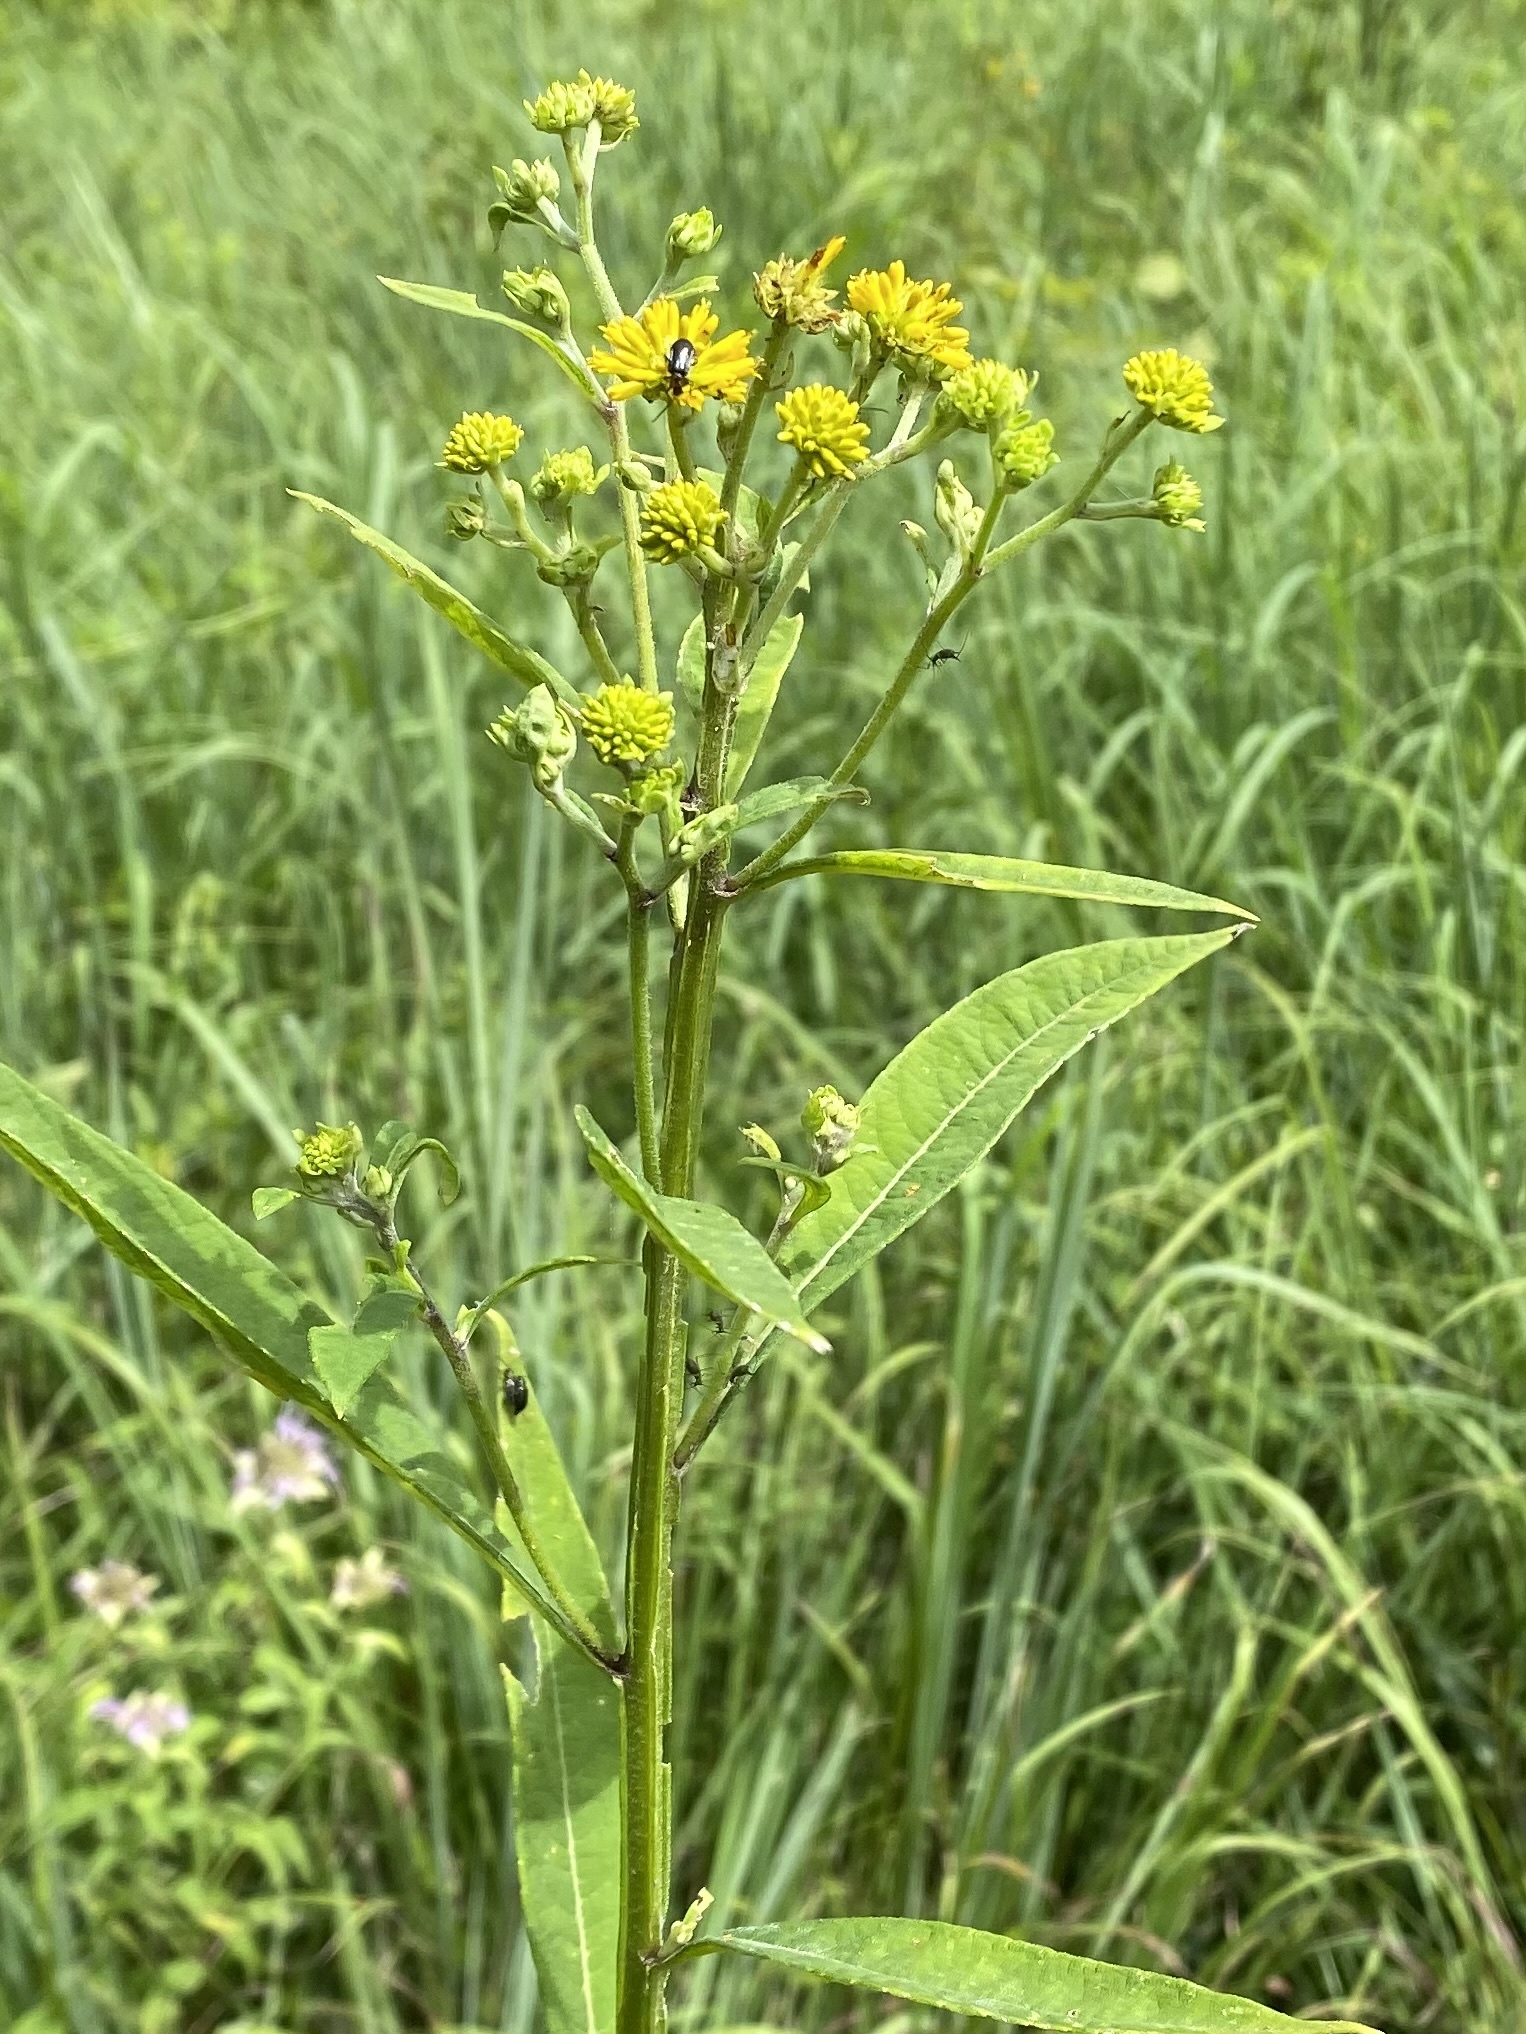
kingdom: Plantae
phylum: Tracheophyta
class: Magnoliopsida
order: Asterales
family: Asteraceae
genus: Verbesina
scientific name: Verbesina alternifolia
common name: Wingstem
